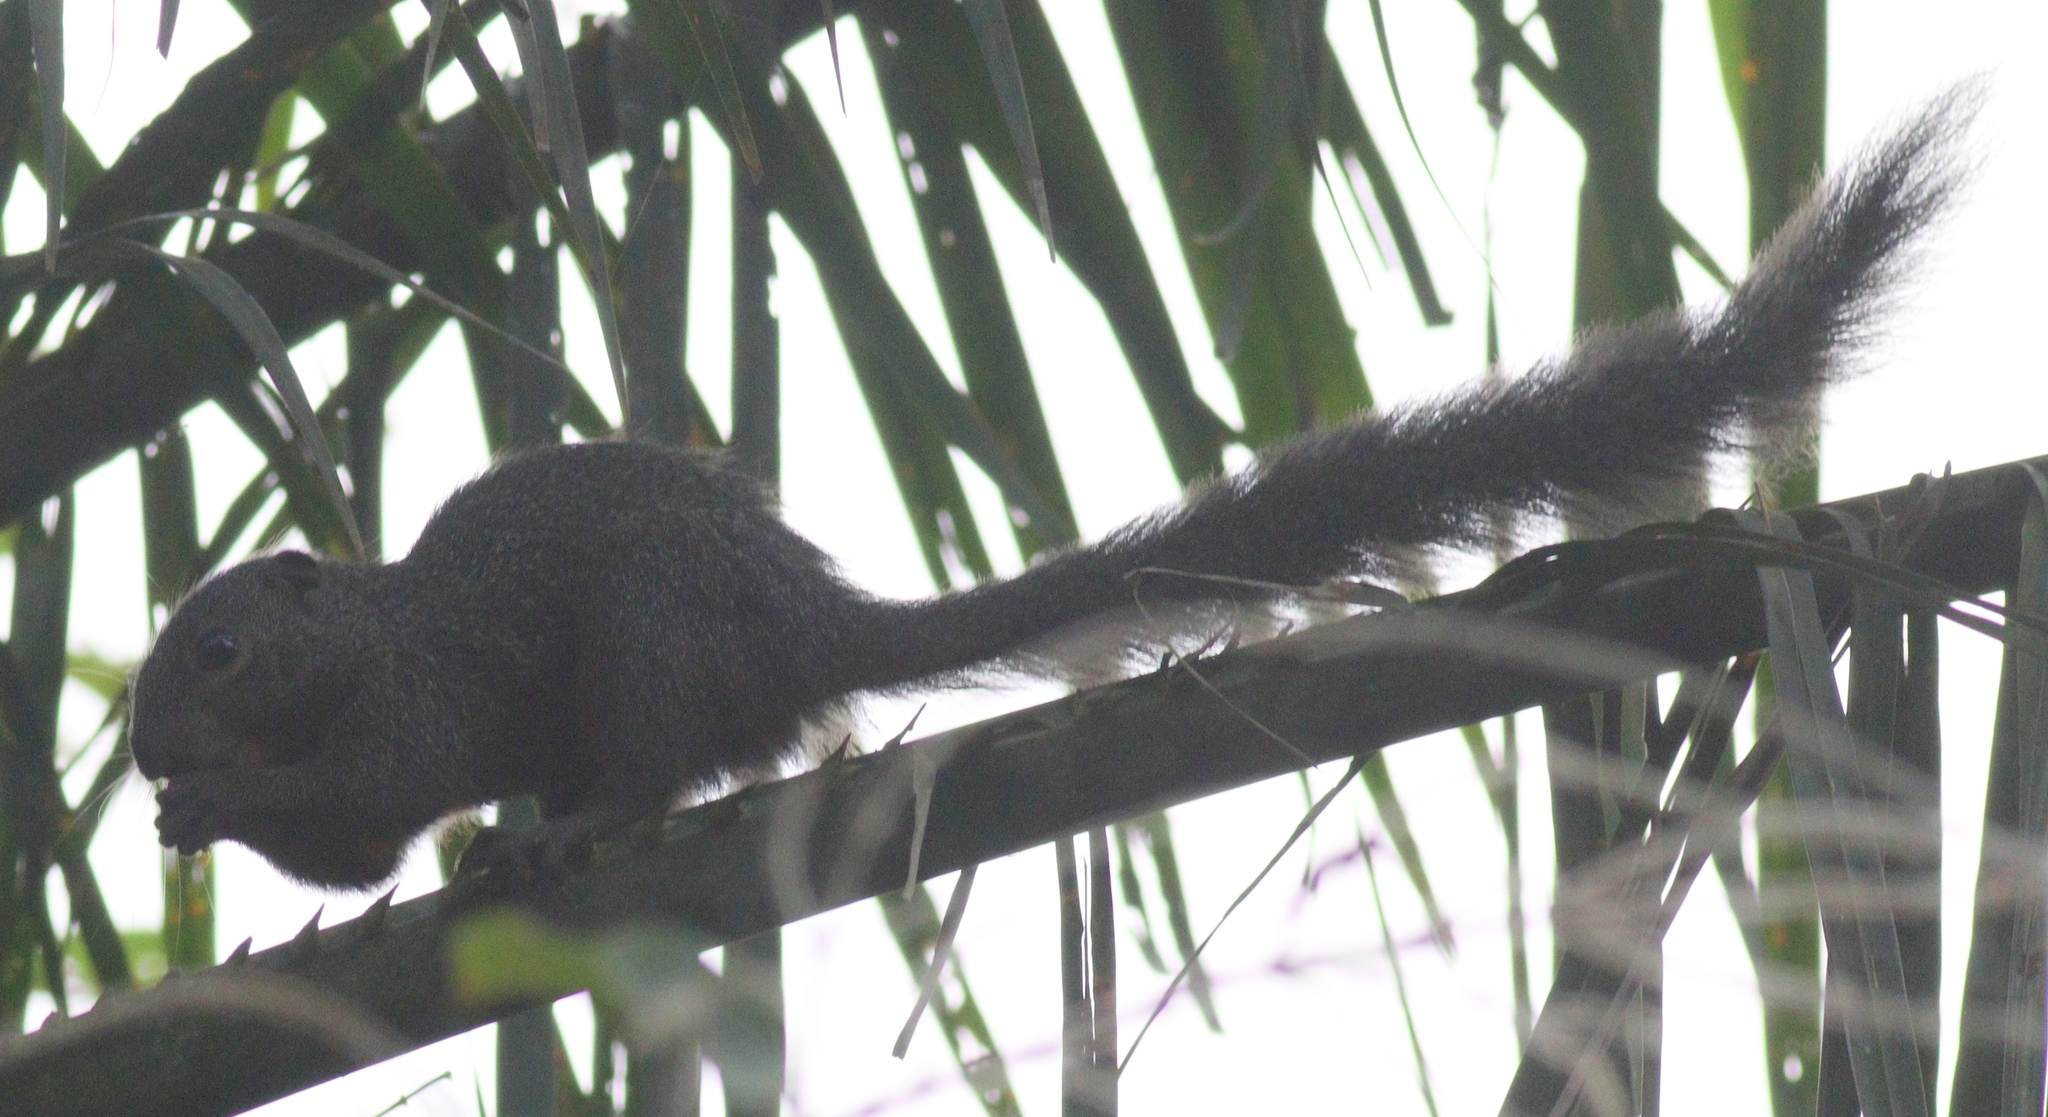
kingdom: Animalia
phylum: Chordata
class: Mammalia
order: Rodentia
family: Sciuridae
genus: Heliosciurus
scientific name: Heliosciurus rufobrachium
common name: Red-legged sun squirrel
